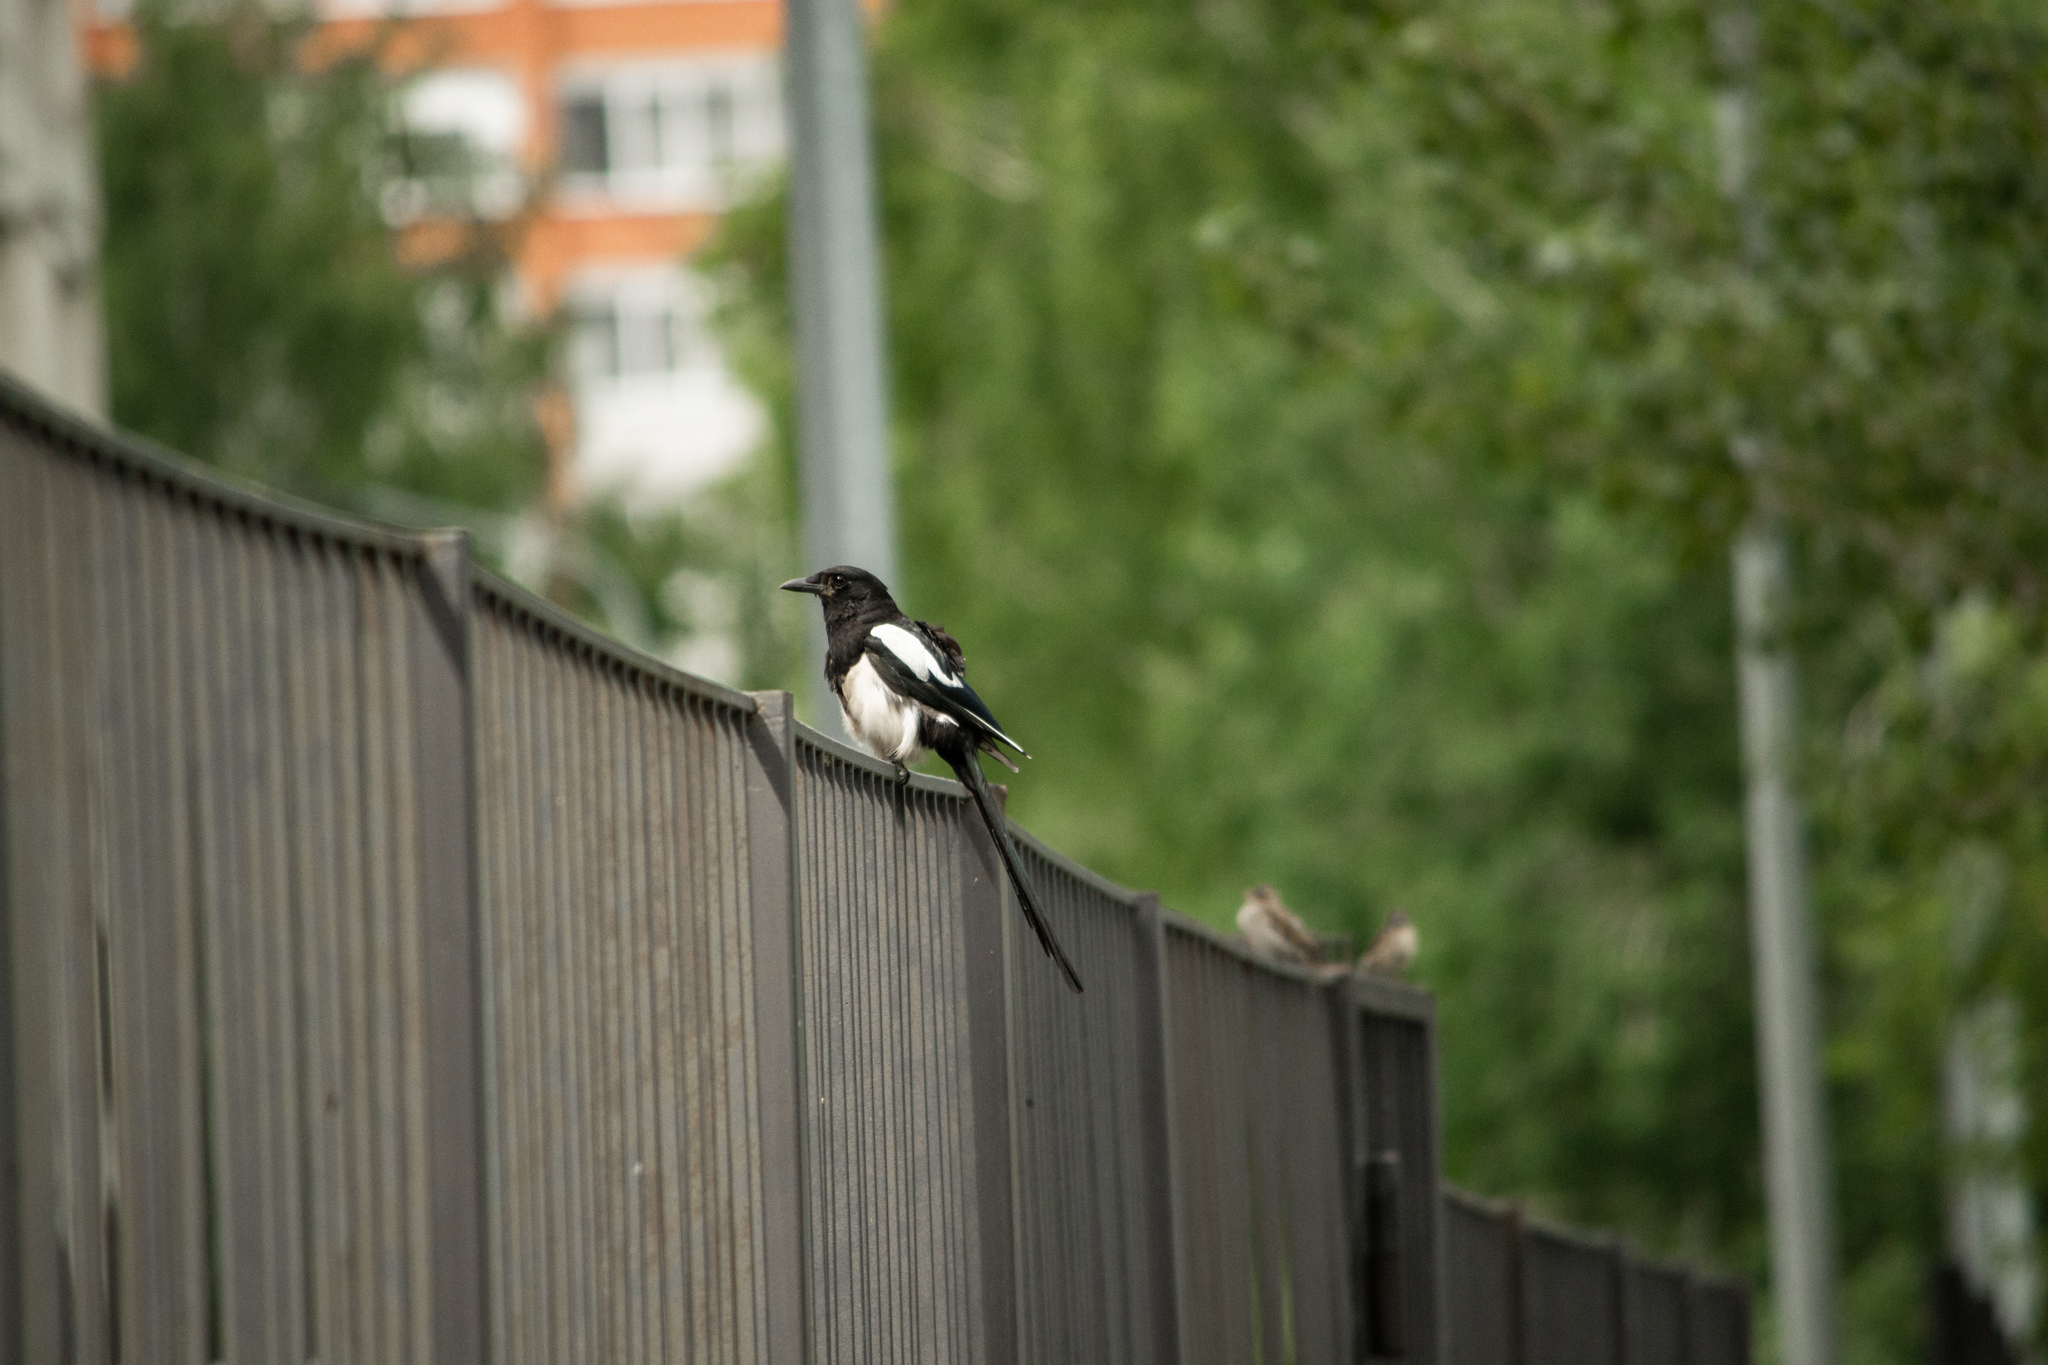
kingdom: Animalia
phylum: Chordata
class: Aves
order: Passeriformes
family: Corvidae
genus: Pica
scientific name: Pica pica
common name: Eurasian magpie
